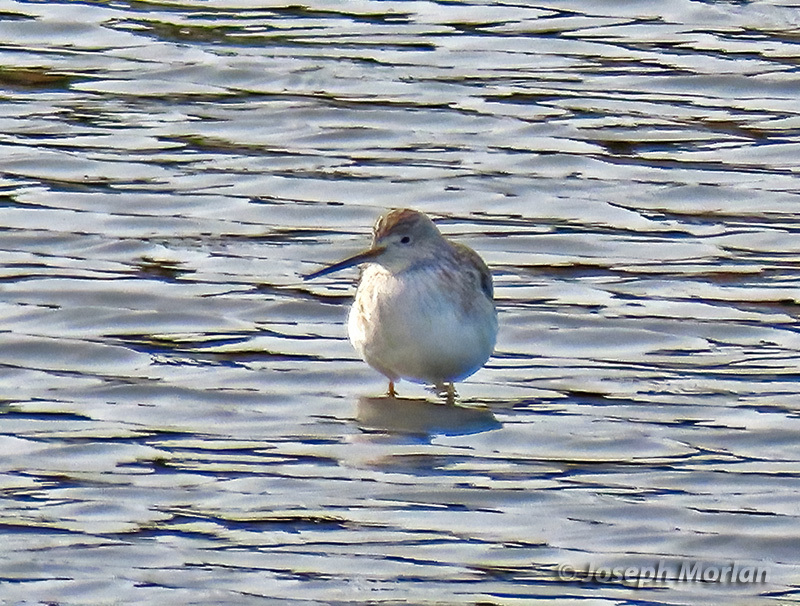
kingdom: Animalia
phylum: Chordata
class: Aves
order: Charadriiformes
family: Scolopacidae
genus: Tringa
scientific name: Tringa melanoleuca
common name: Greater yellowlegs
